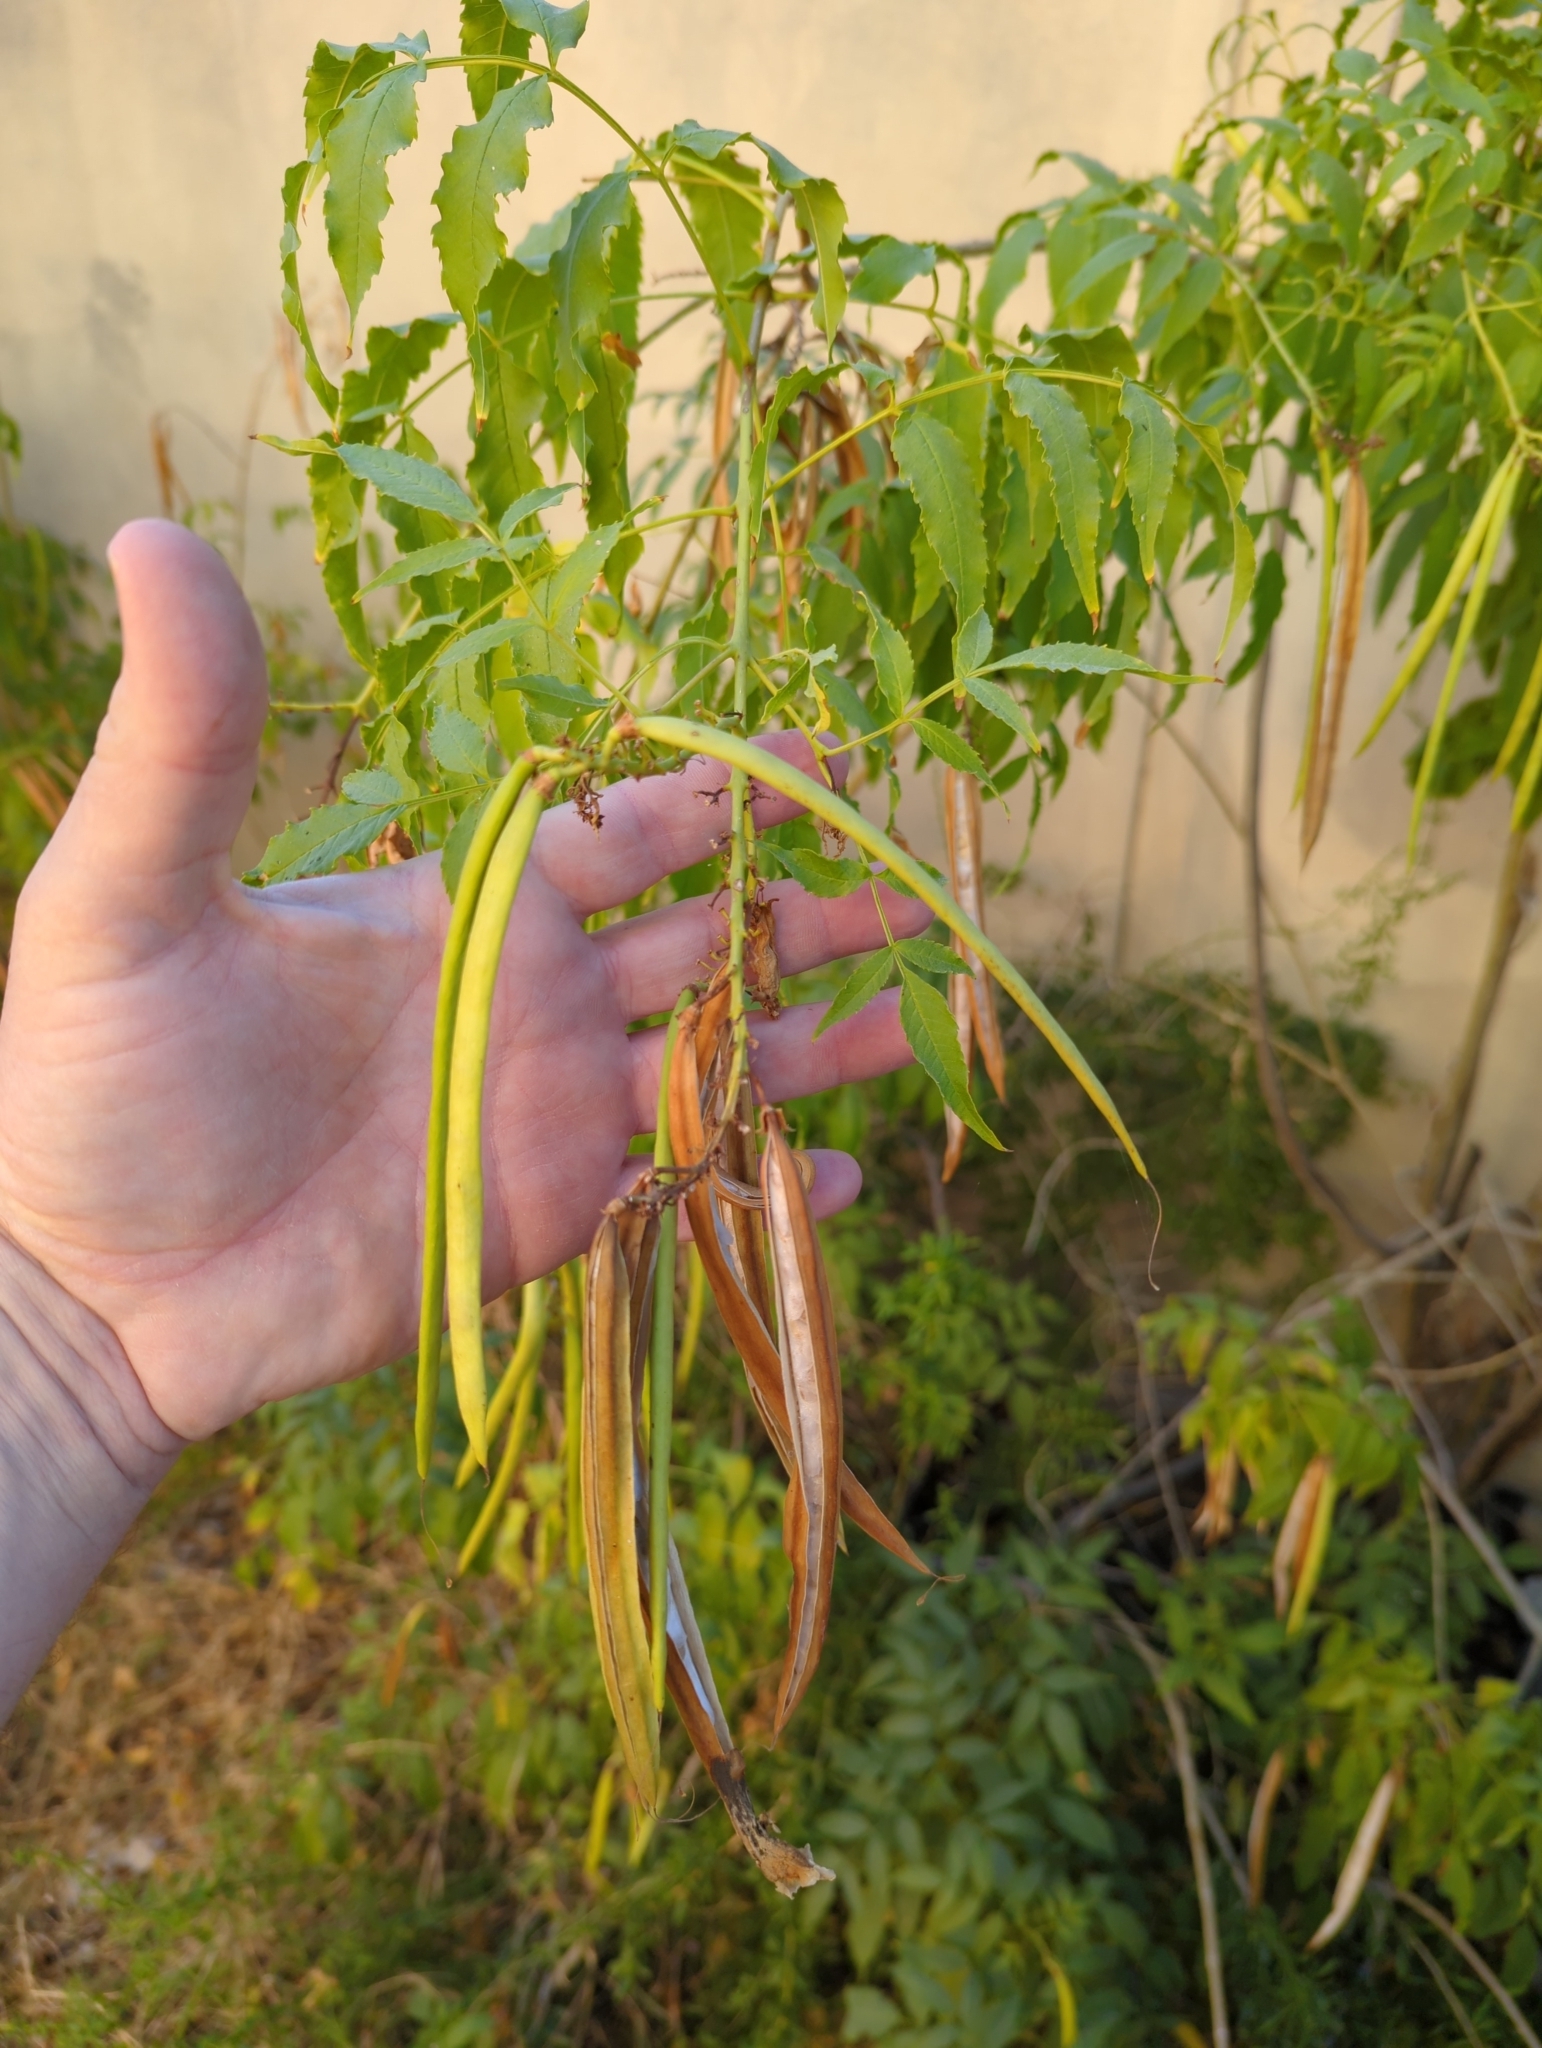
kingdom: Plantae
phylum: Tracheophyta
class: Magnoliopsida
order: Lamiales
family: Bignoniaceae
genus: Tecoma
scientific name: Tecoma stans
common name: Yellow trumpetbush
